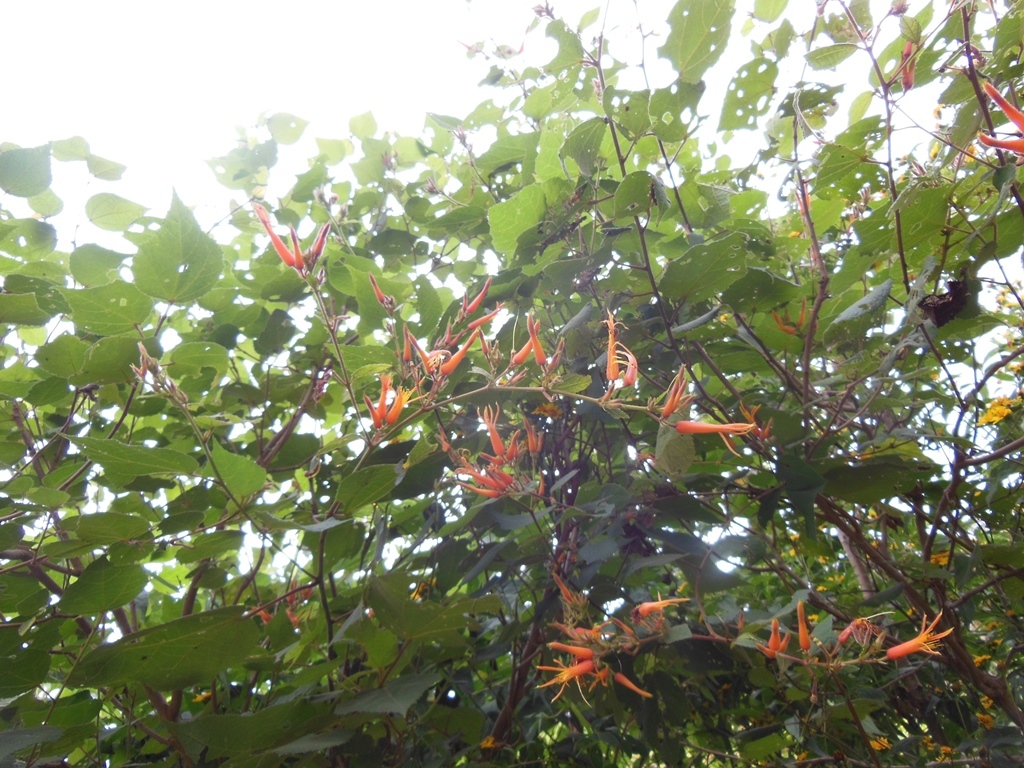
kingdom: Plantae
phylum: Tracheophyta
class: Magnoliopsida
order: Malvales
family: Malvaceae
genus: Triumfetta
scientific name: Triumfetta speciosa
